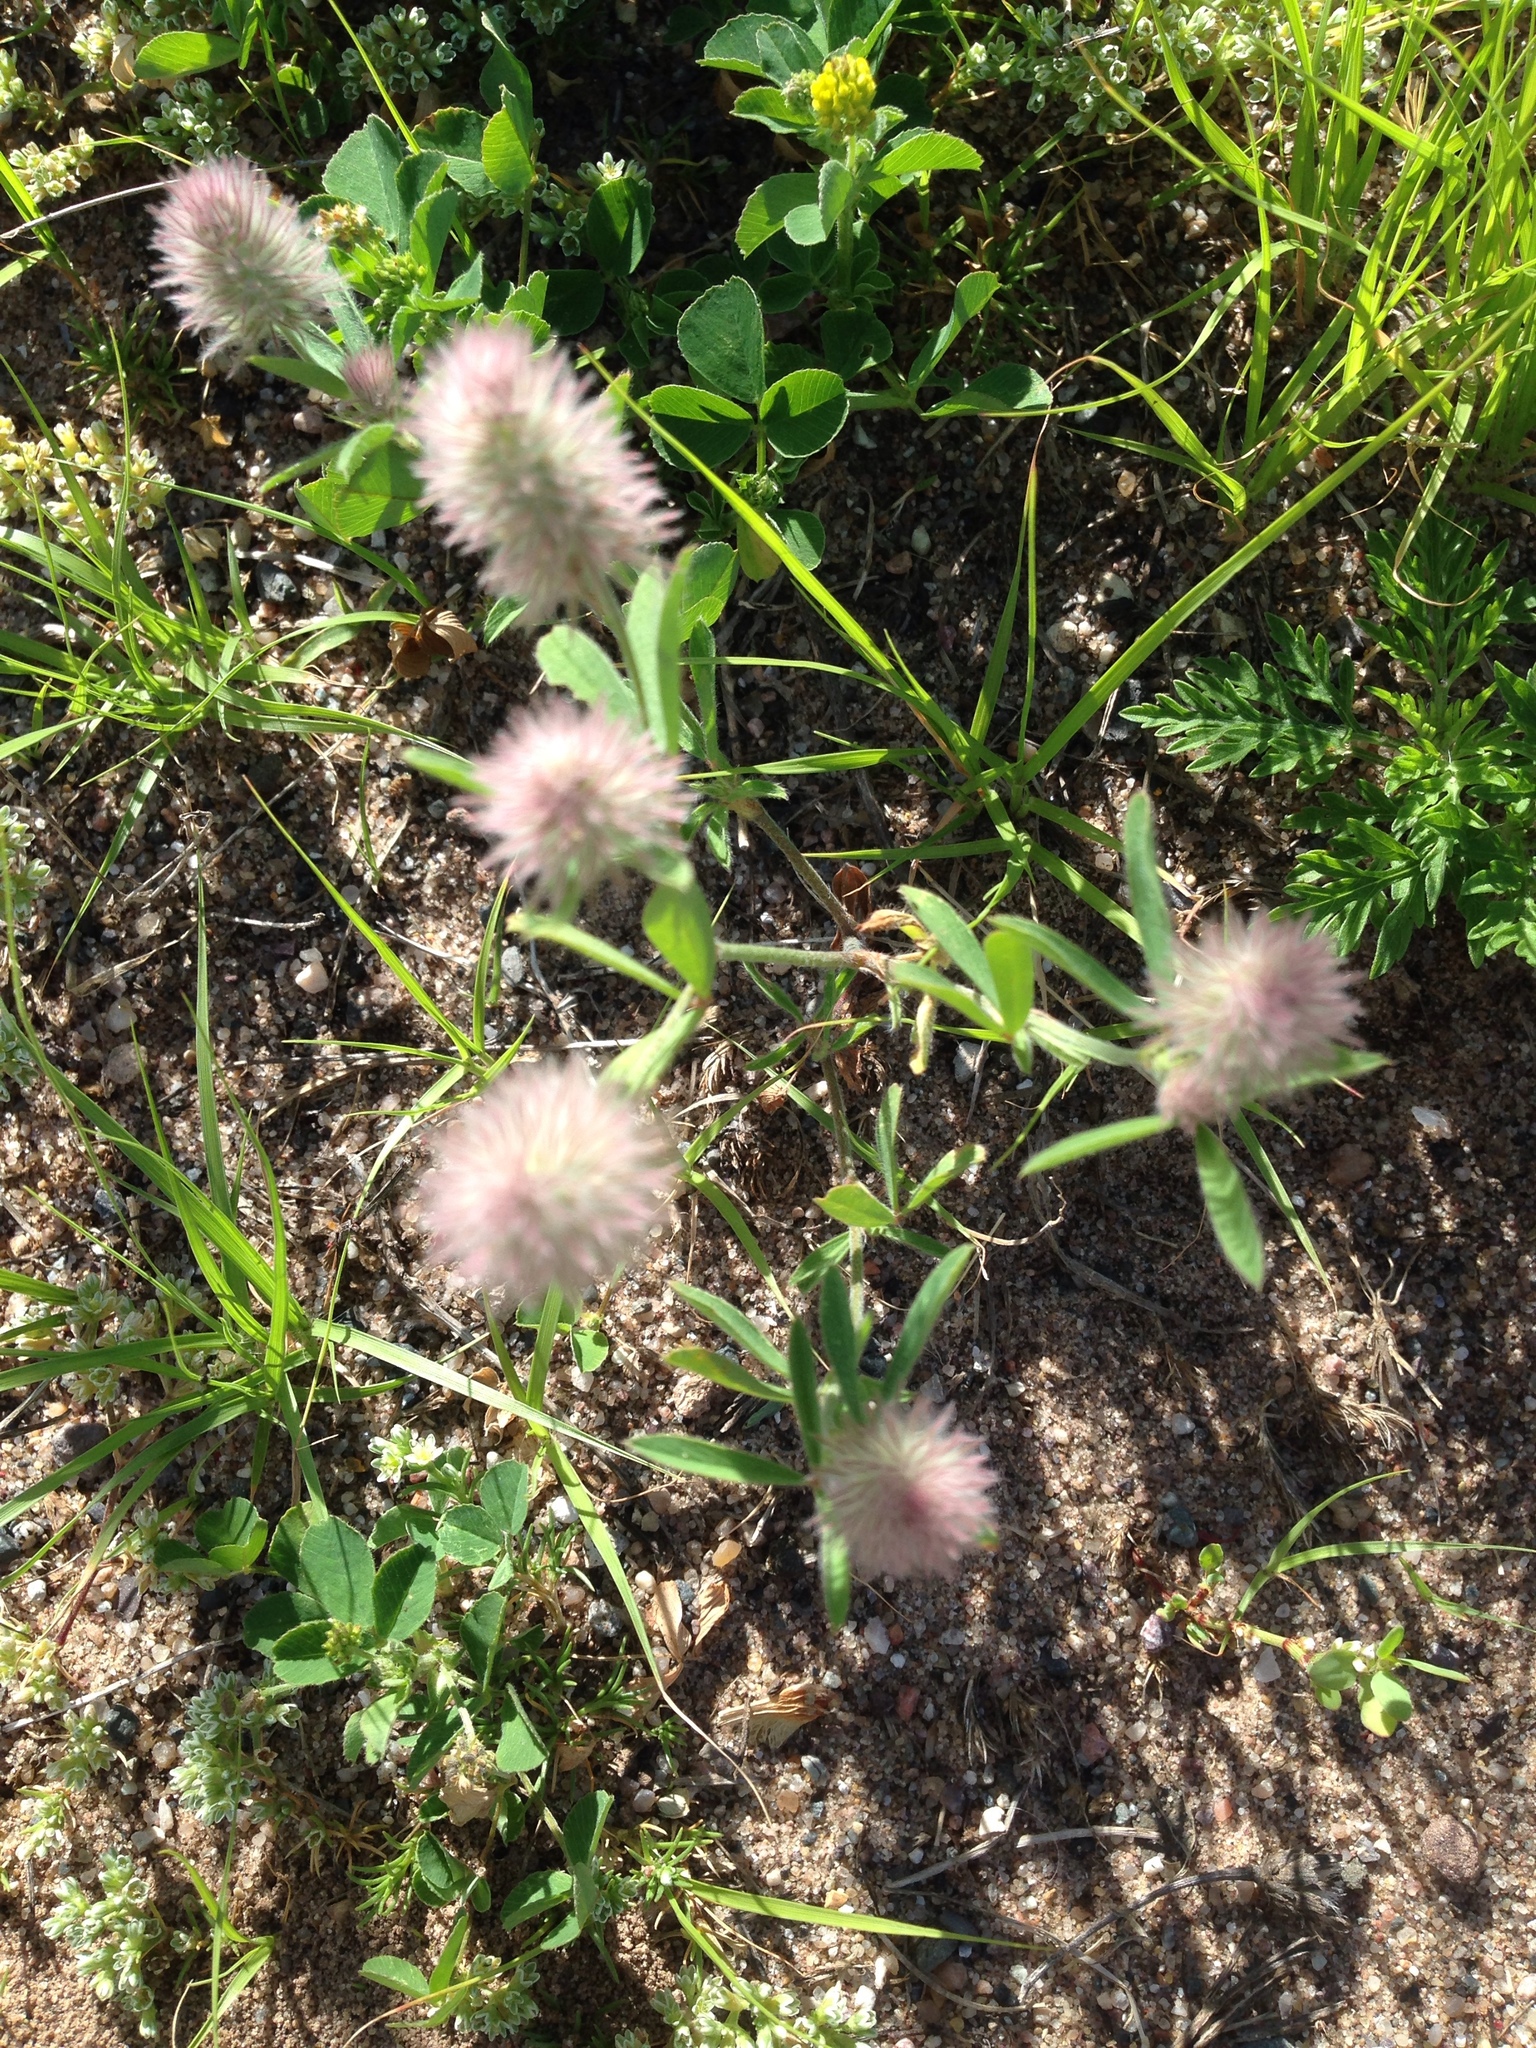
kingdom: Plantae
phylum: Tracheophyta
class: Magnoliopsida
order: Fabales
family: Fabaceae
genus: Trifolium
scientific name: Trifolium arvense
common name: Hare's-foot clover
